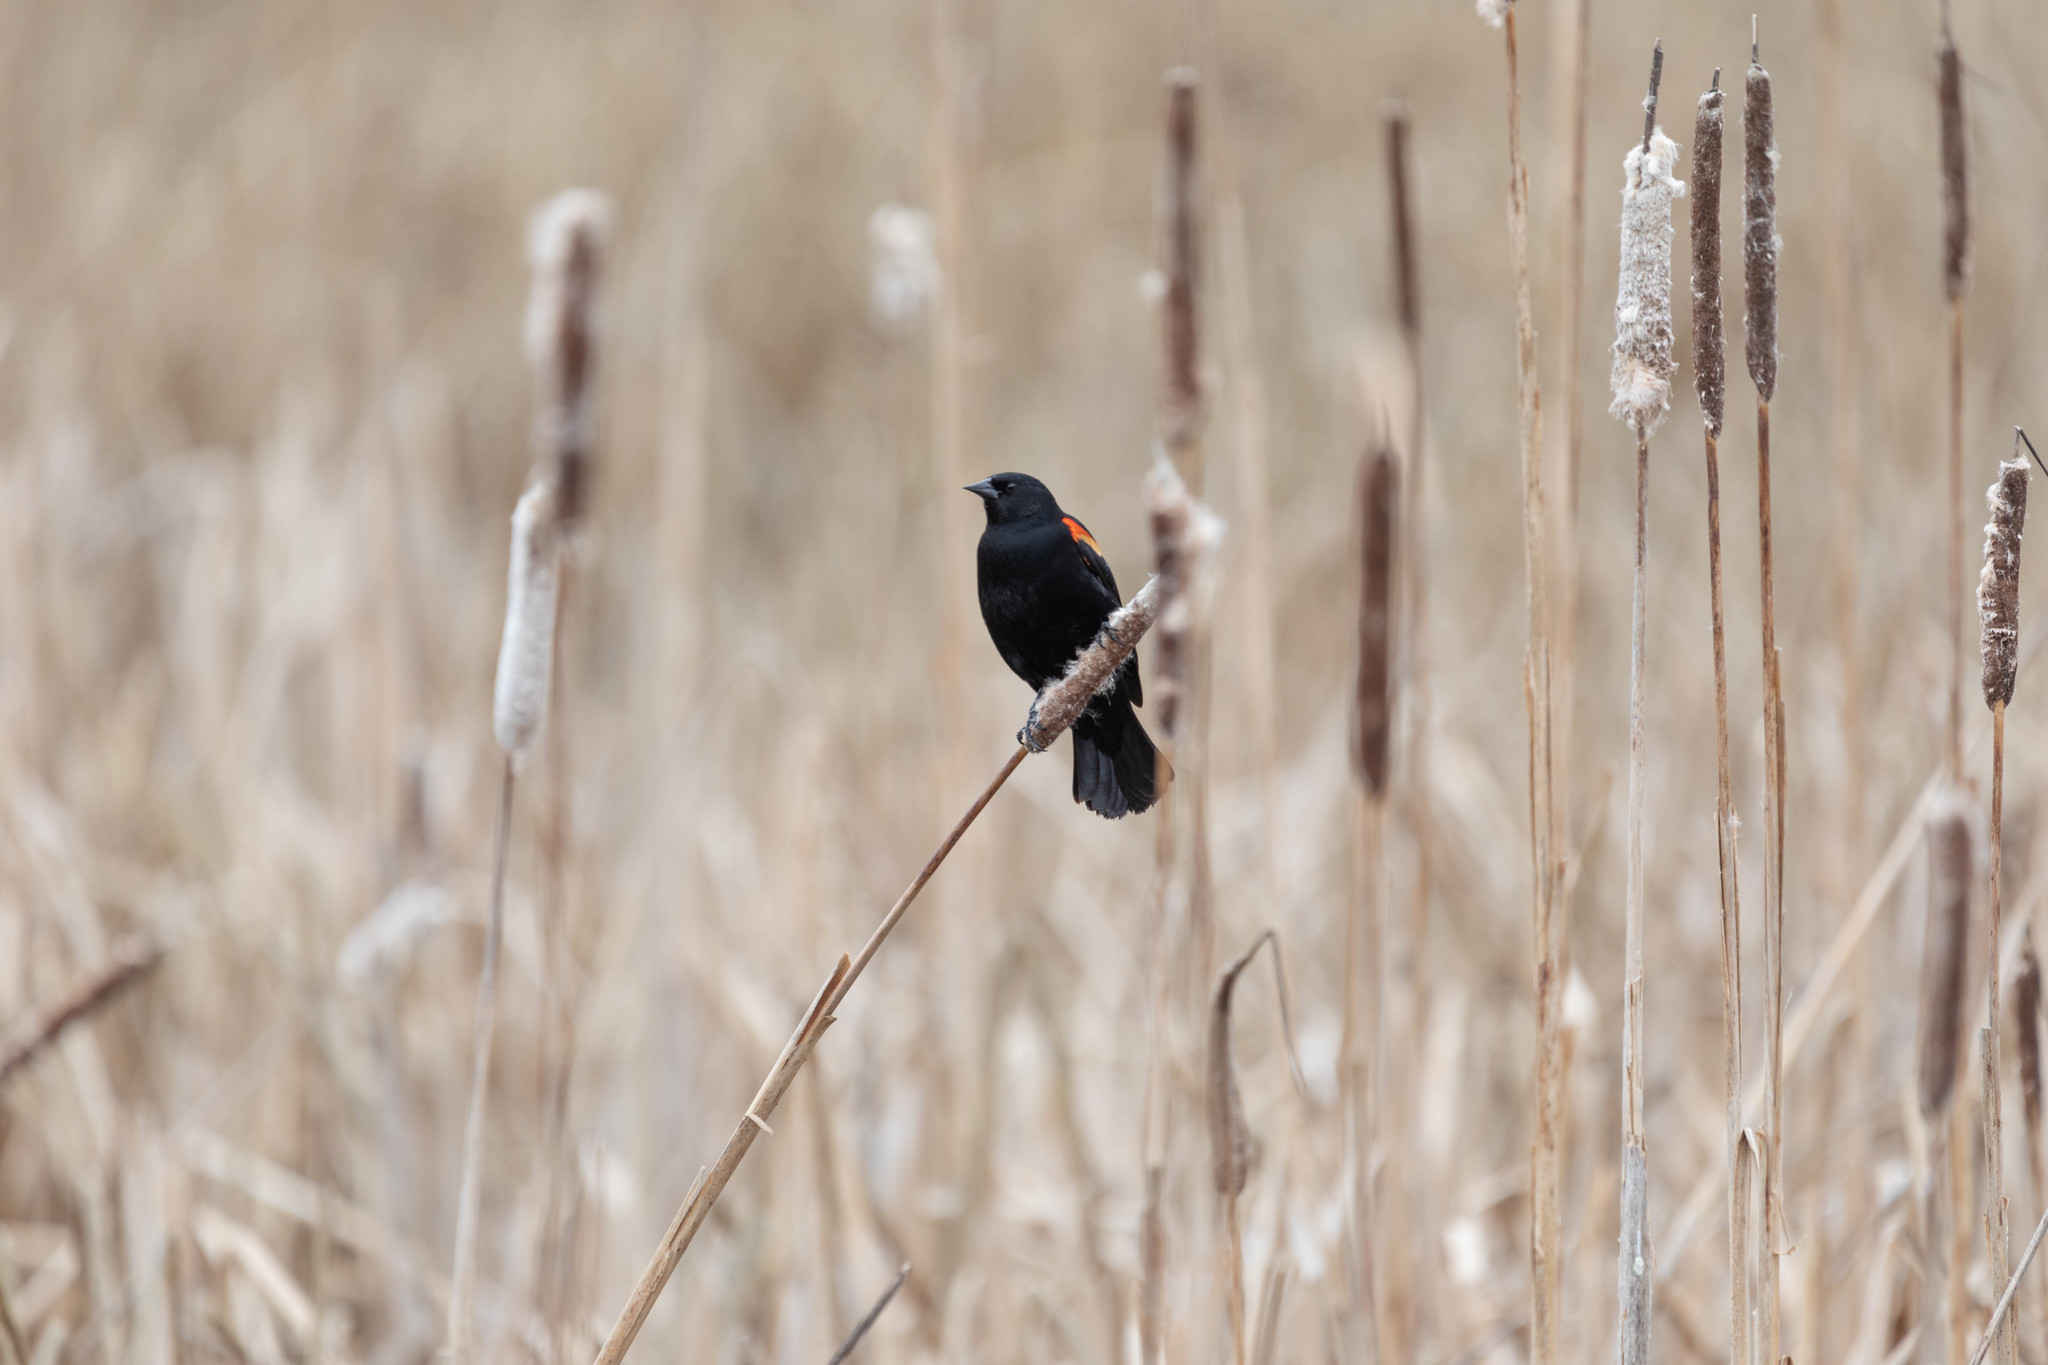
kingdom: Animalia
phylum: Chordata
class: Aves
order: Passeriformes
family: Icteridae
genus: Agelaius
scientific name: Agelaius phoeniceus
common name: Red-winged blackbird
